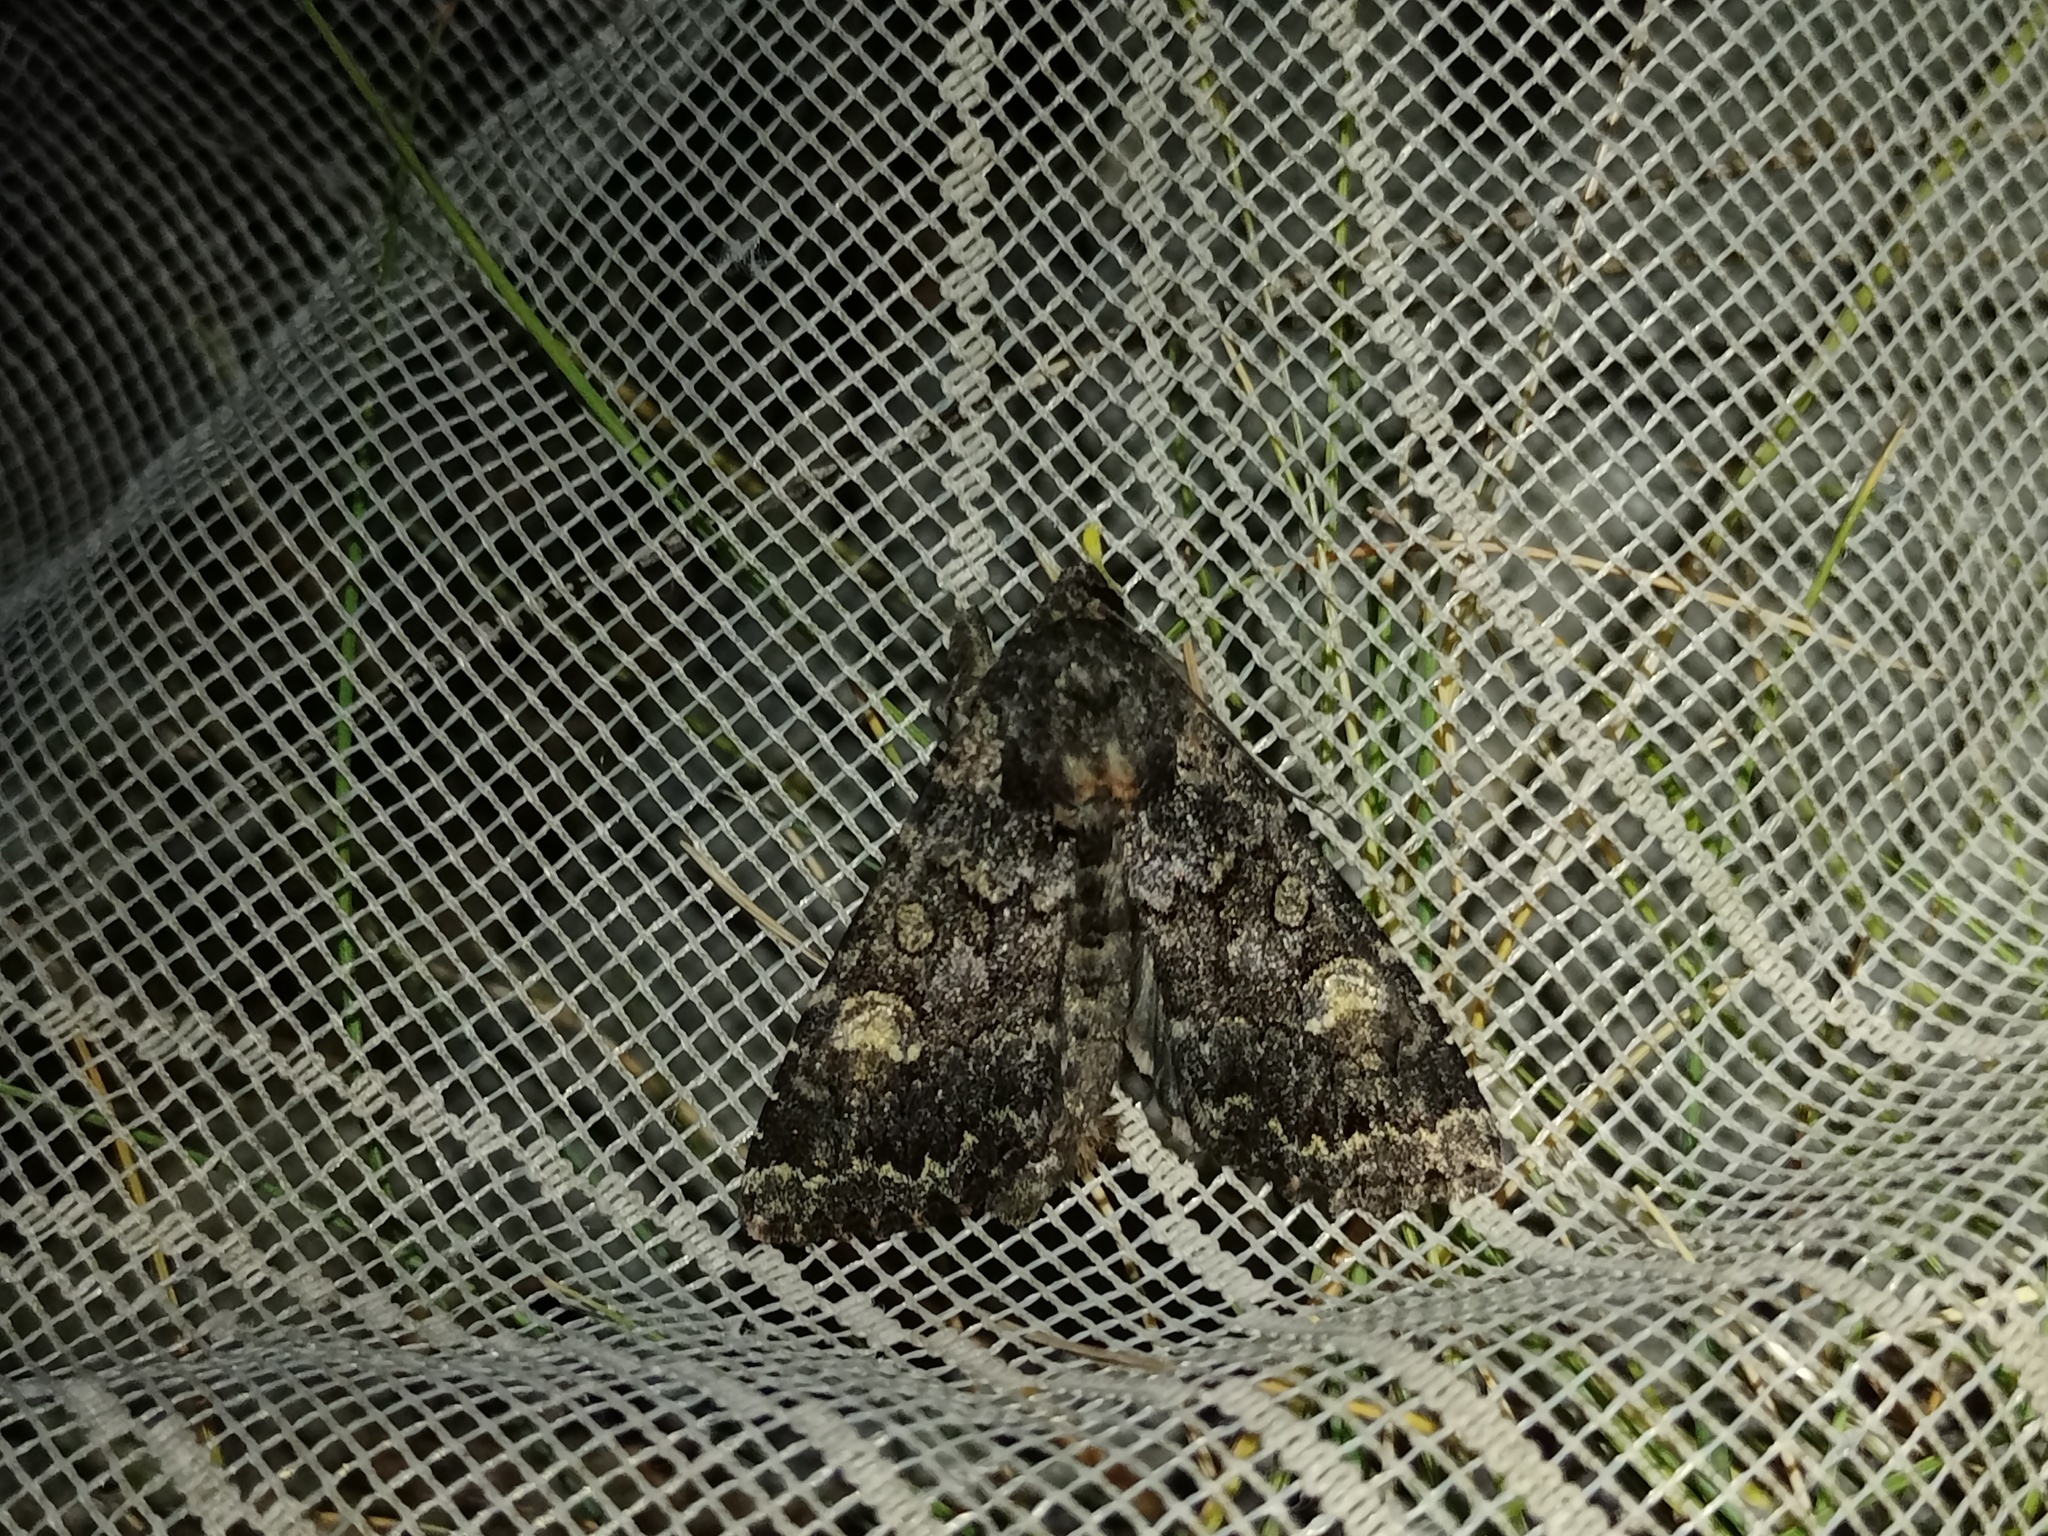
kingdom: Animalia
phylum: Arthropoda
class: Insecta
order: Lepidoptera
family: Noctuidae
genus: Apamea
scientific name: Apamea rubrirena
